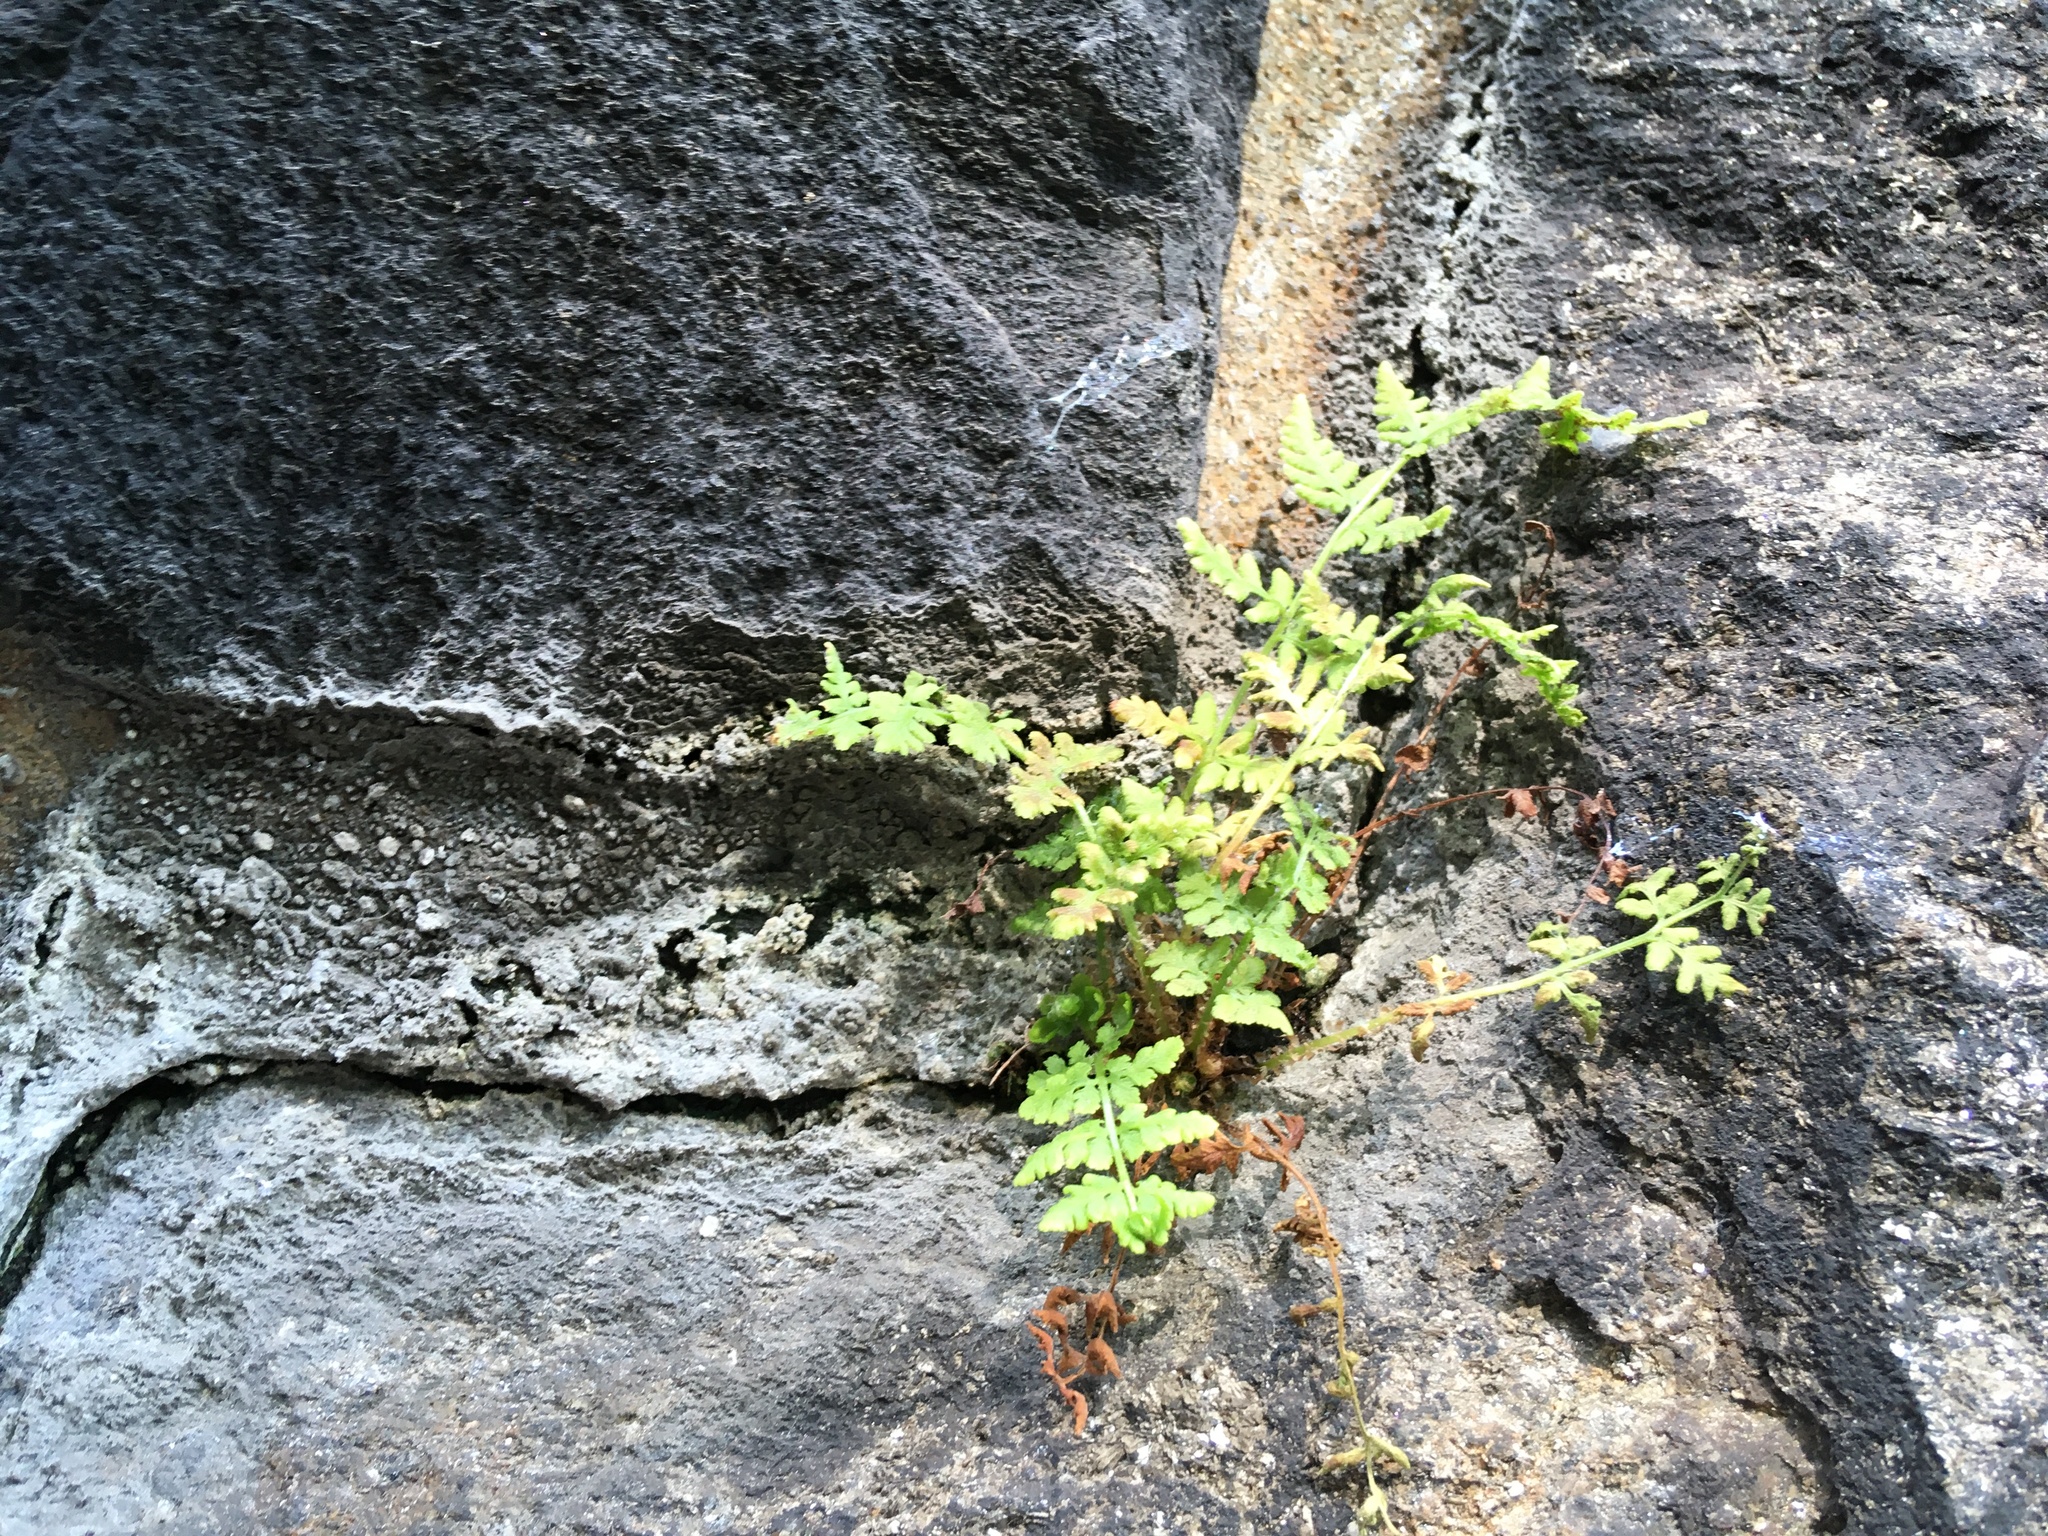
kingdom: Plantae
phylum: Tracheophyta
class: Polypodiopsida
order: Polypodiales
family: Woodsiaceae
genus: Physematium
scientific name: Physematium obtusum
